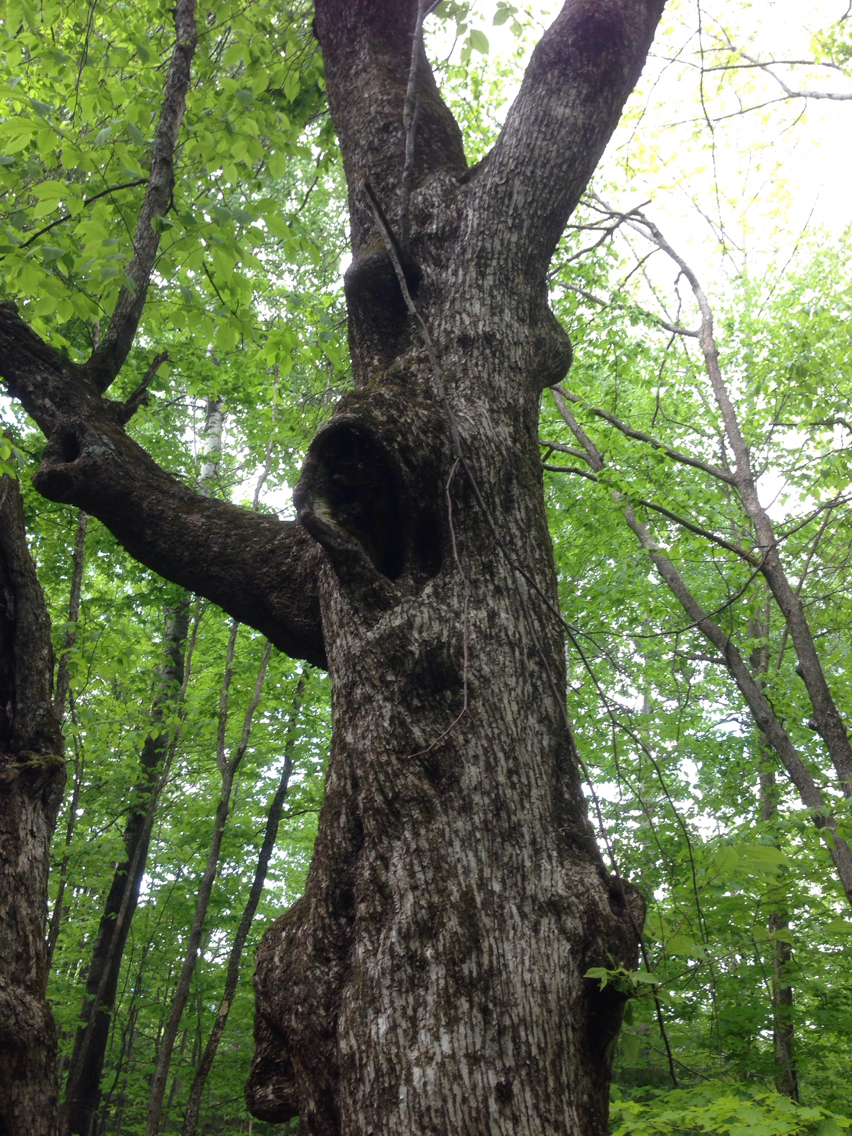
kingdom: Plantae
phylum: Tracheophyta
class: Magnoliopsida
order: Fagales
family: Betulaceae
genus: Ostrya
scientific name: Ostrya virginiana
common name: Ironwood
